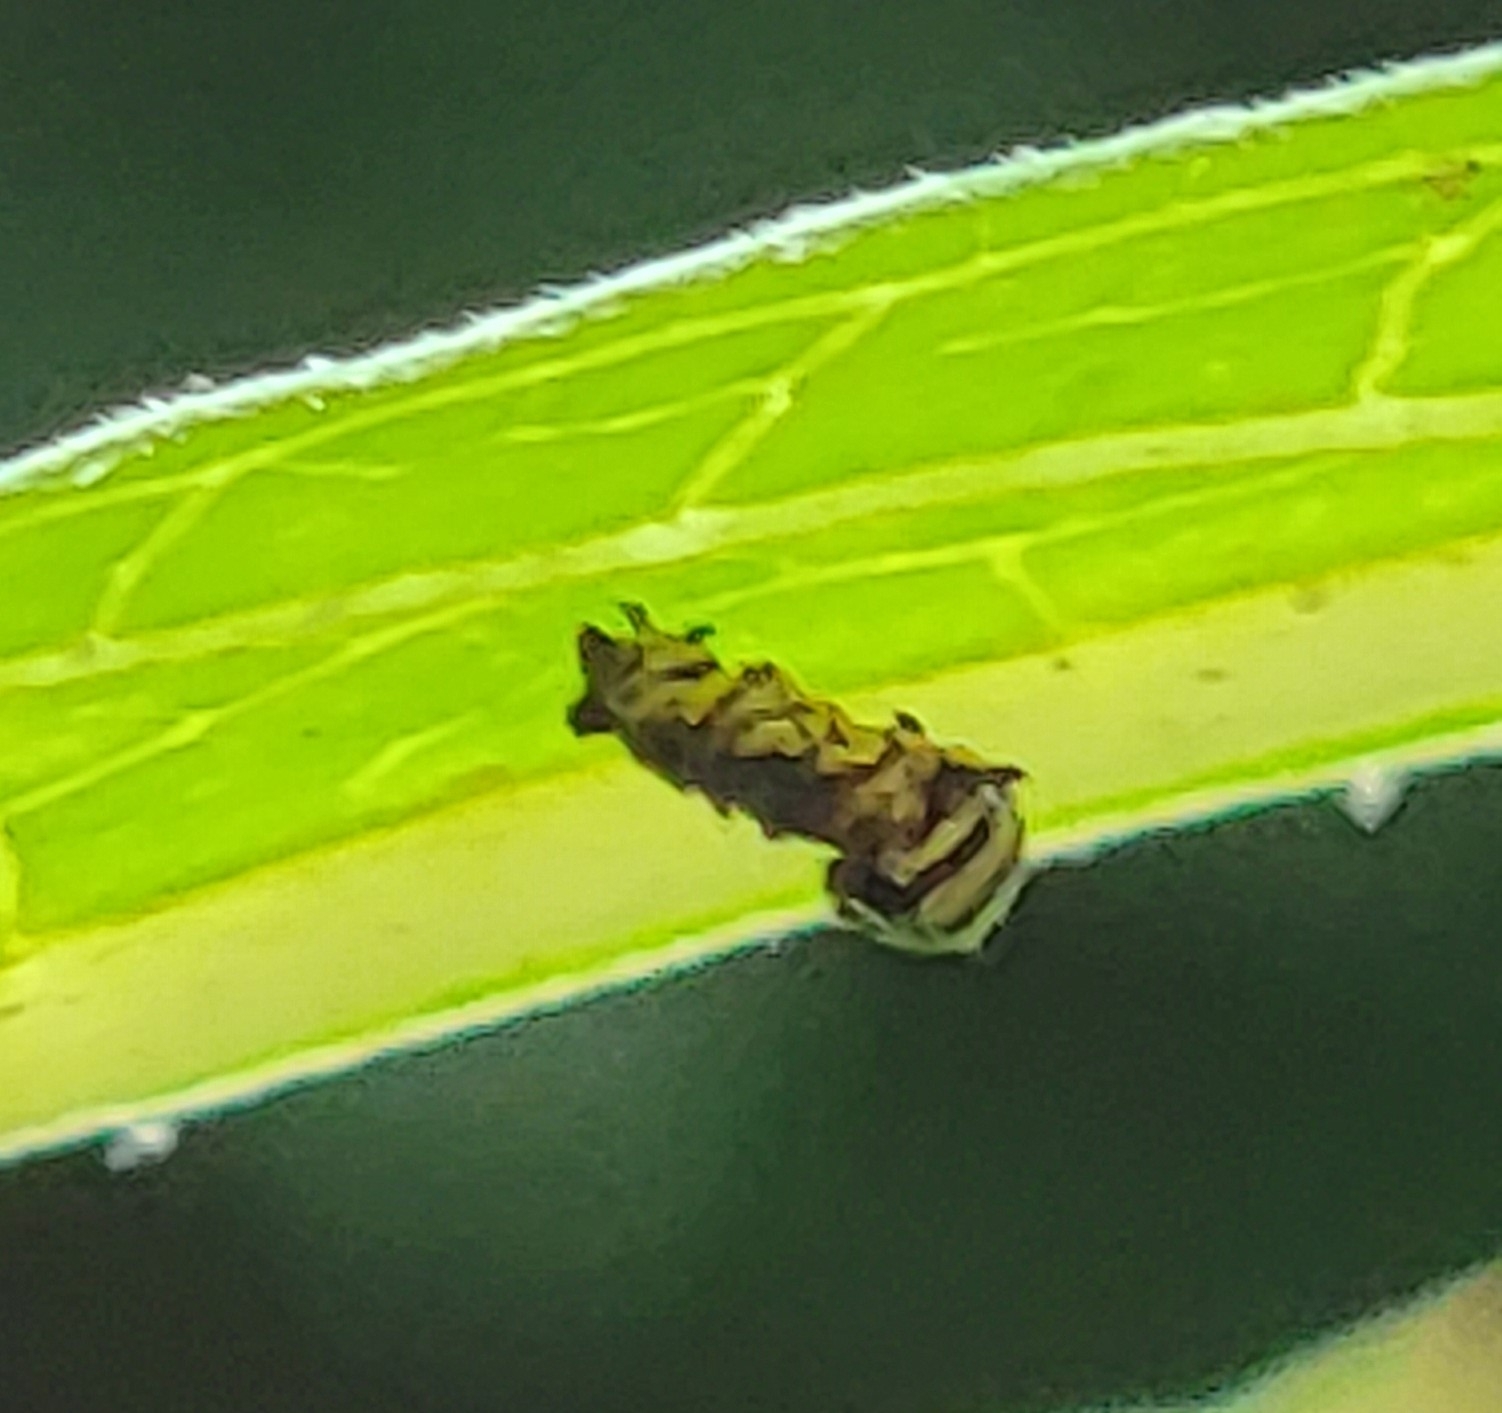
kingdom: Animalia
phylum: Arthropoda
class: Insecta
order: Lepidoptera
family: Nymphalidae
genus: Danaus
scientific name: Danaus plexippus
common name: Monarch
